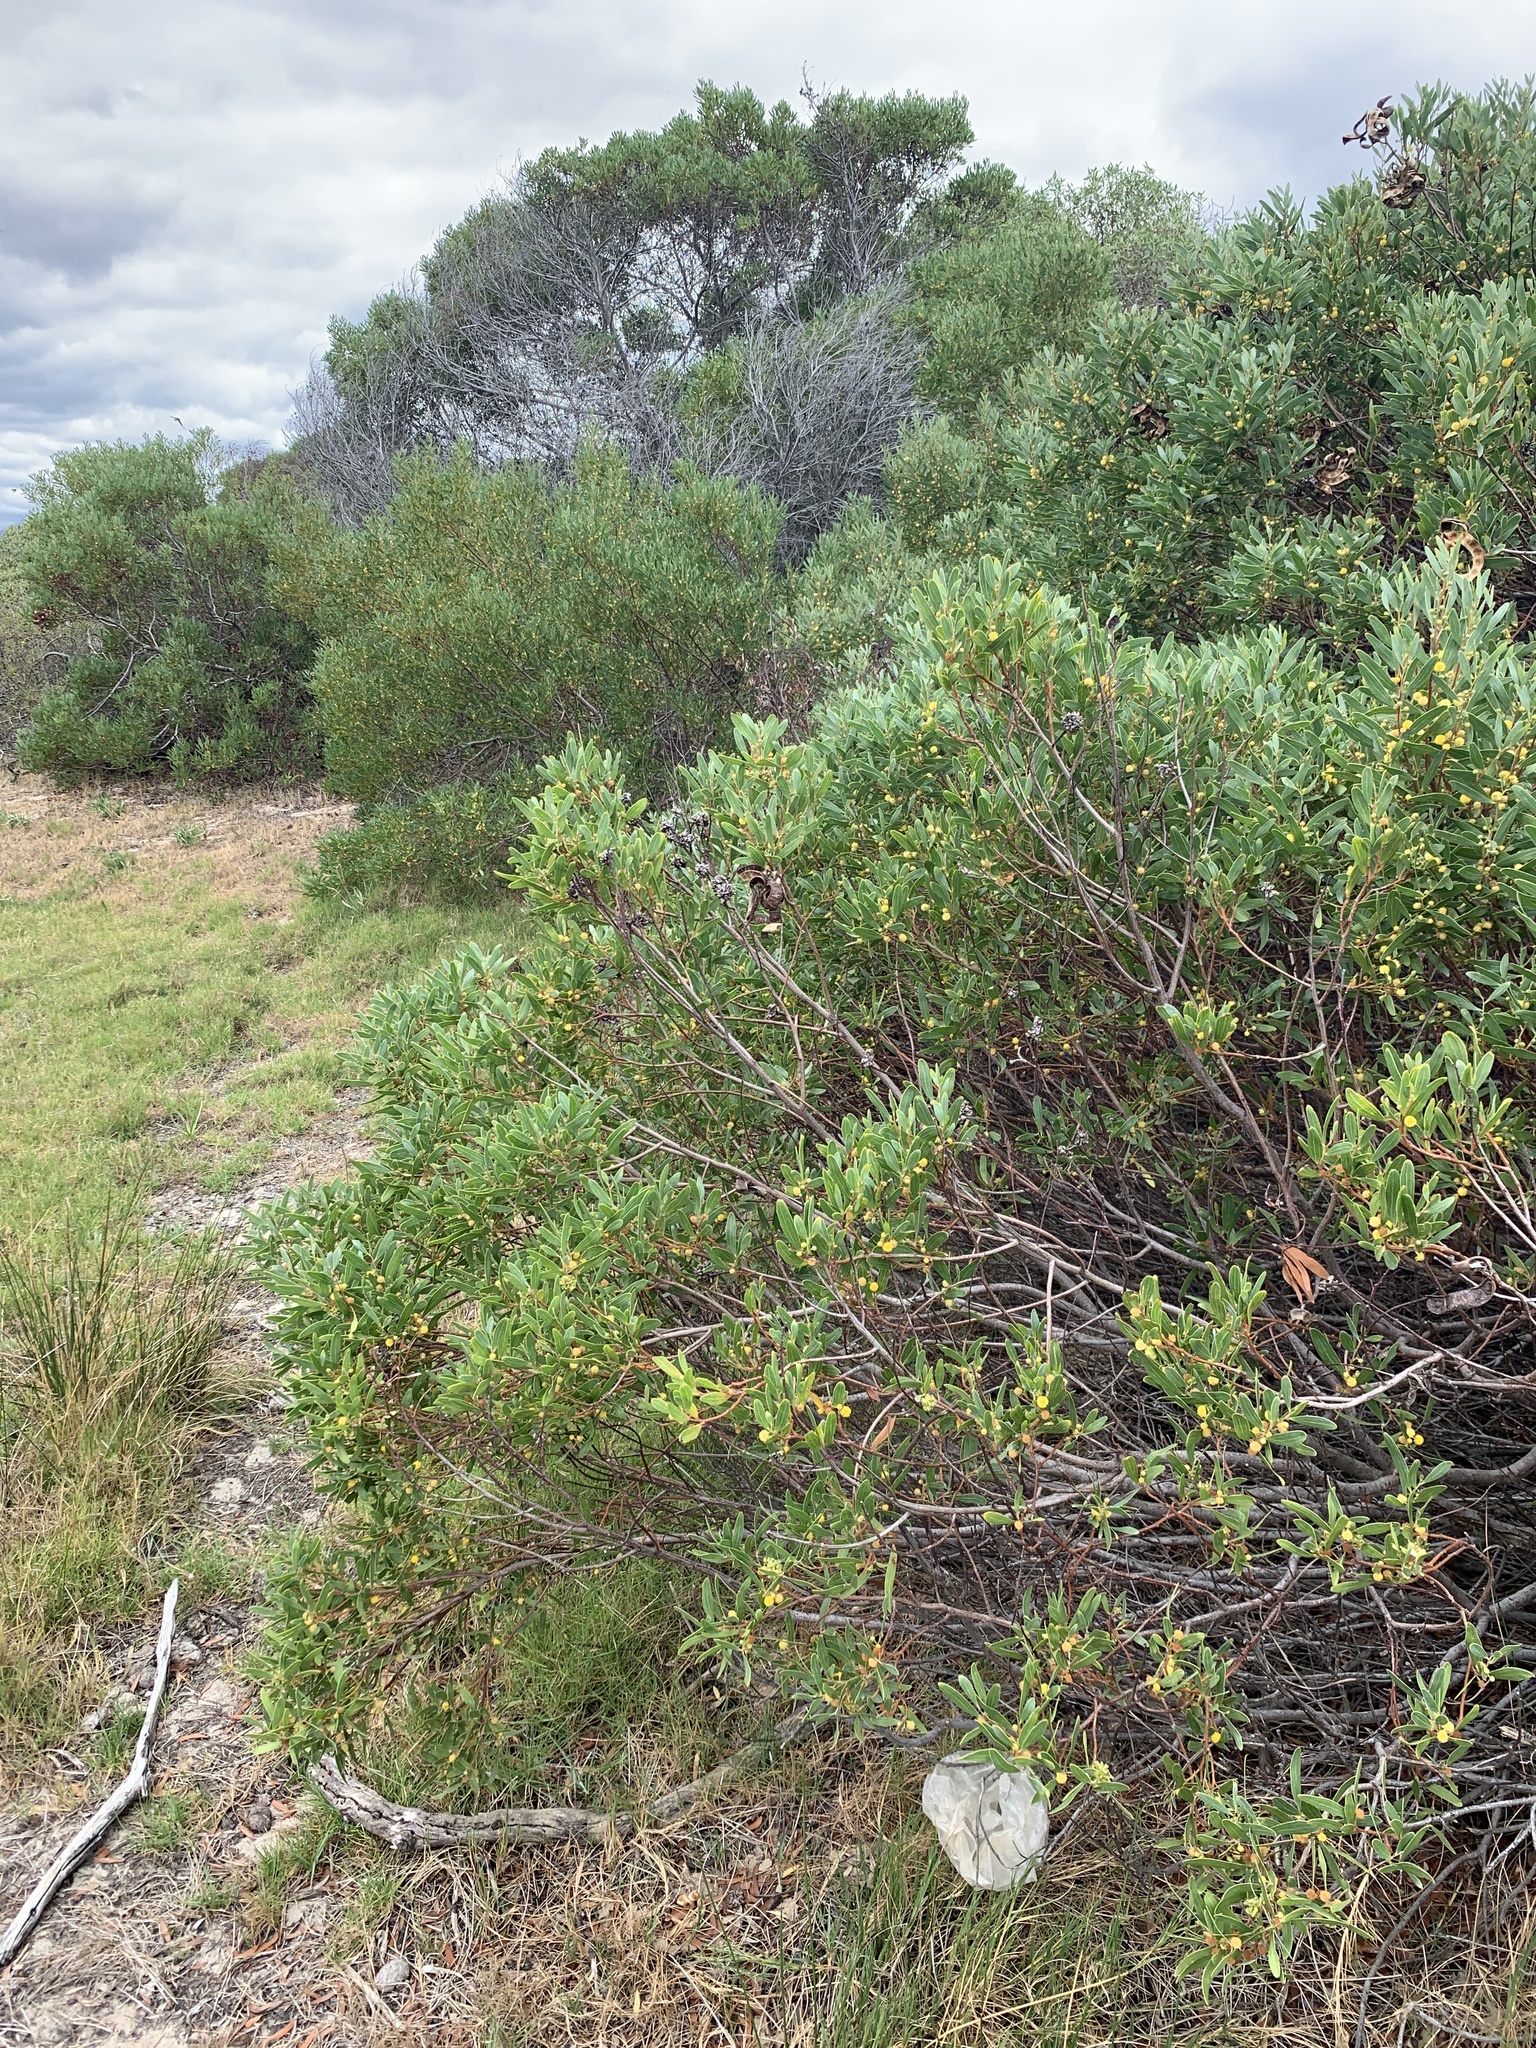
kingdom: Plantae
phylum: Tracheophyta
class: Magnoliopsida
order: Fabales
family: Fabaceae
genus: Acacia
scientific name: Acacia cyclops
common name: Coastal wattle
